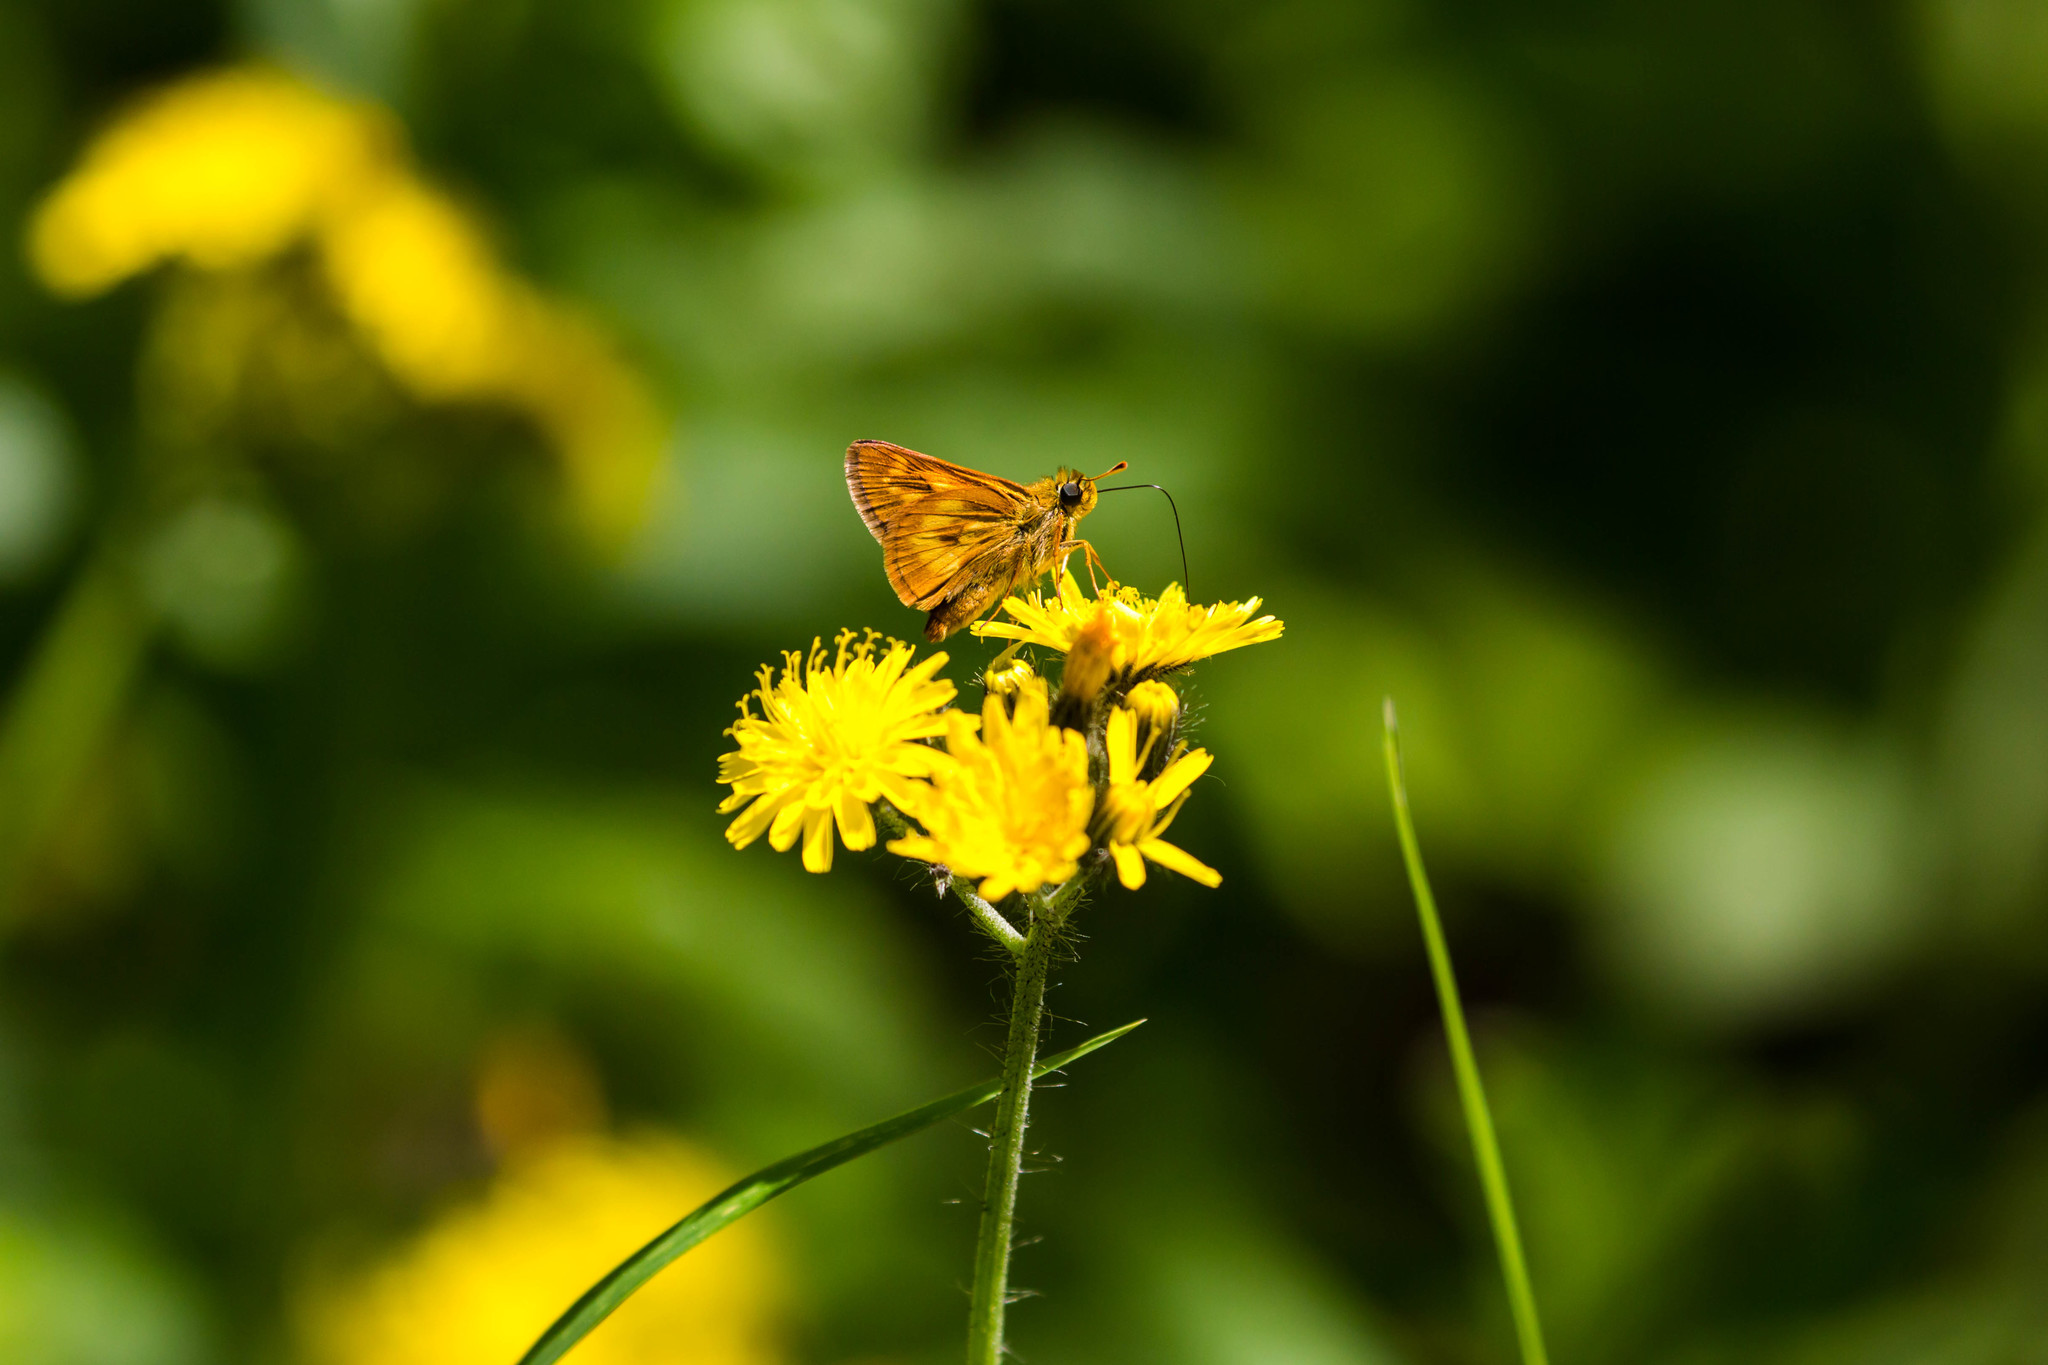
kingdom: Animalia
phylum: Arthropoda
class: Insecta
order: Lepidoptera
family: Hesperiidae
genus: Polites
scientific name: Polites mystic
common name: Long dash
